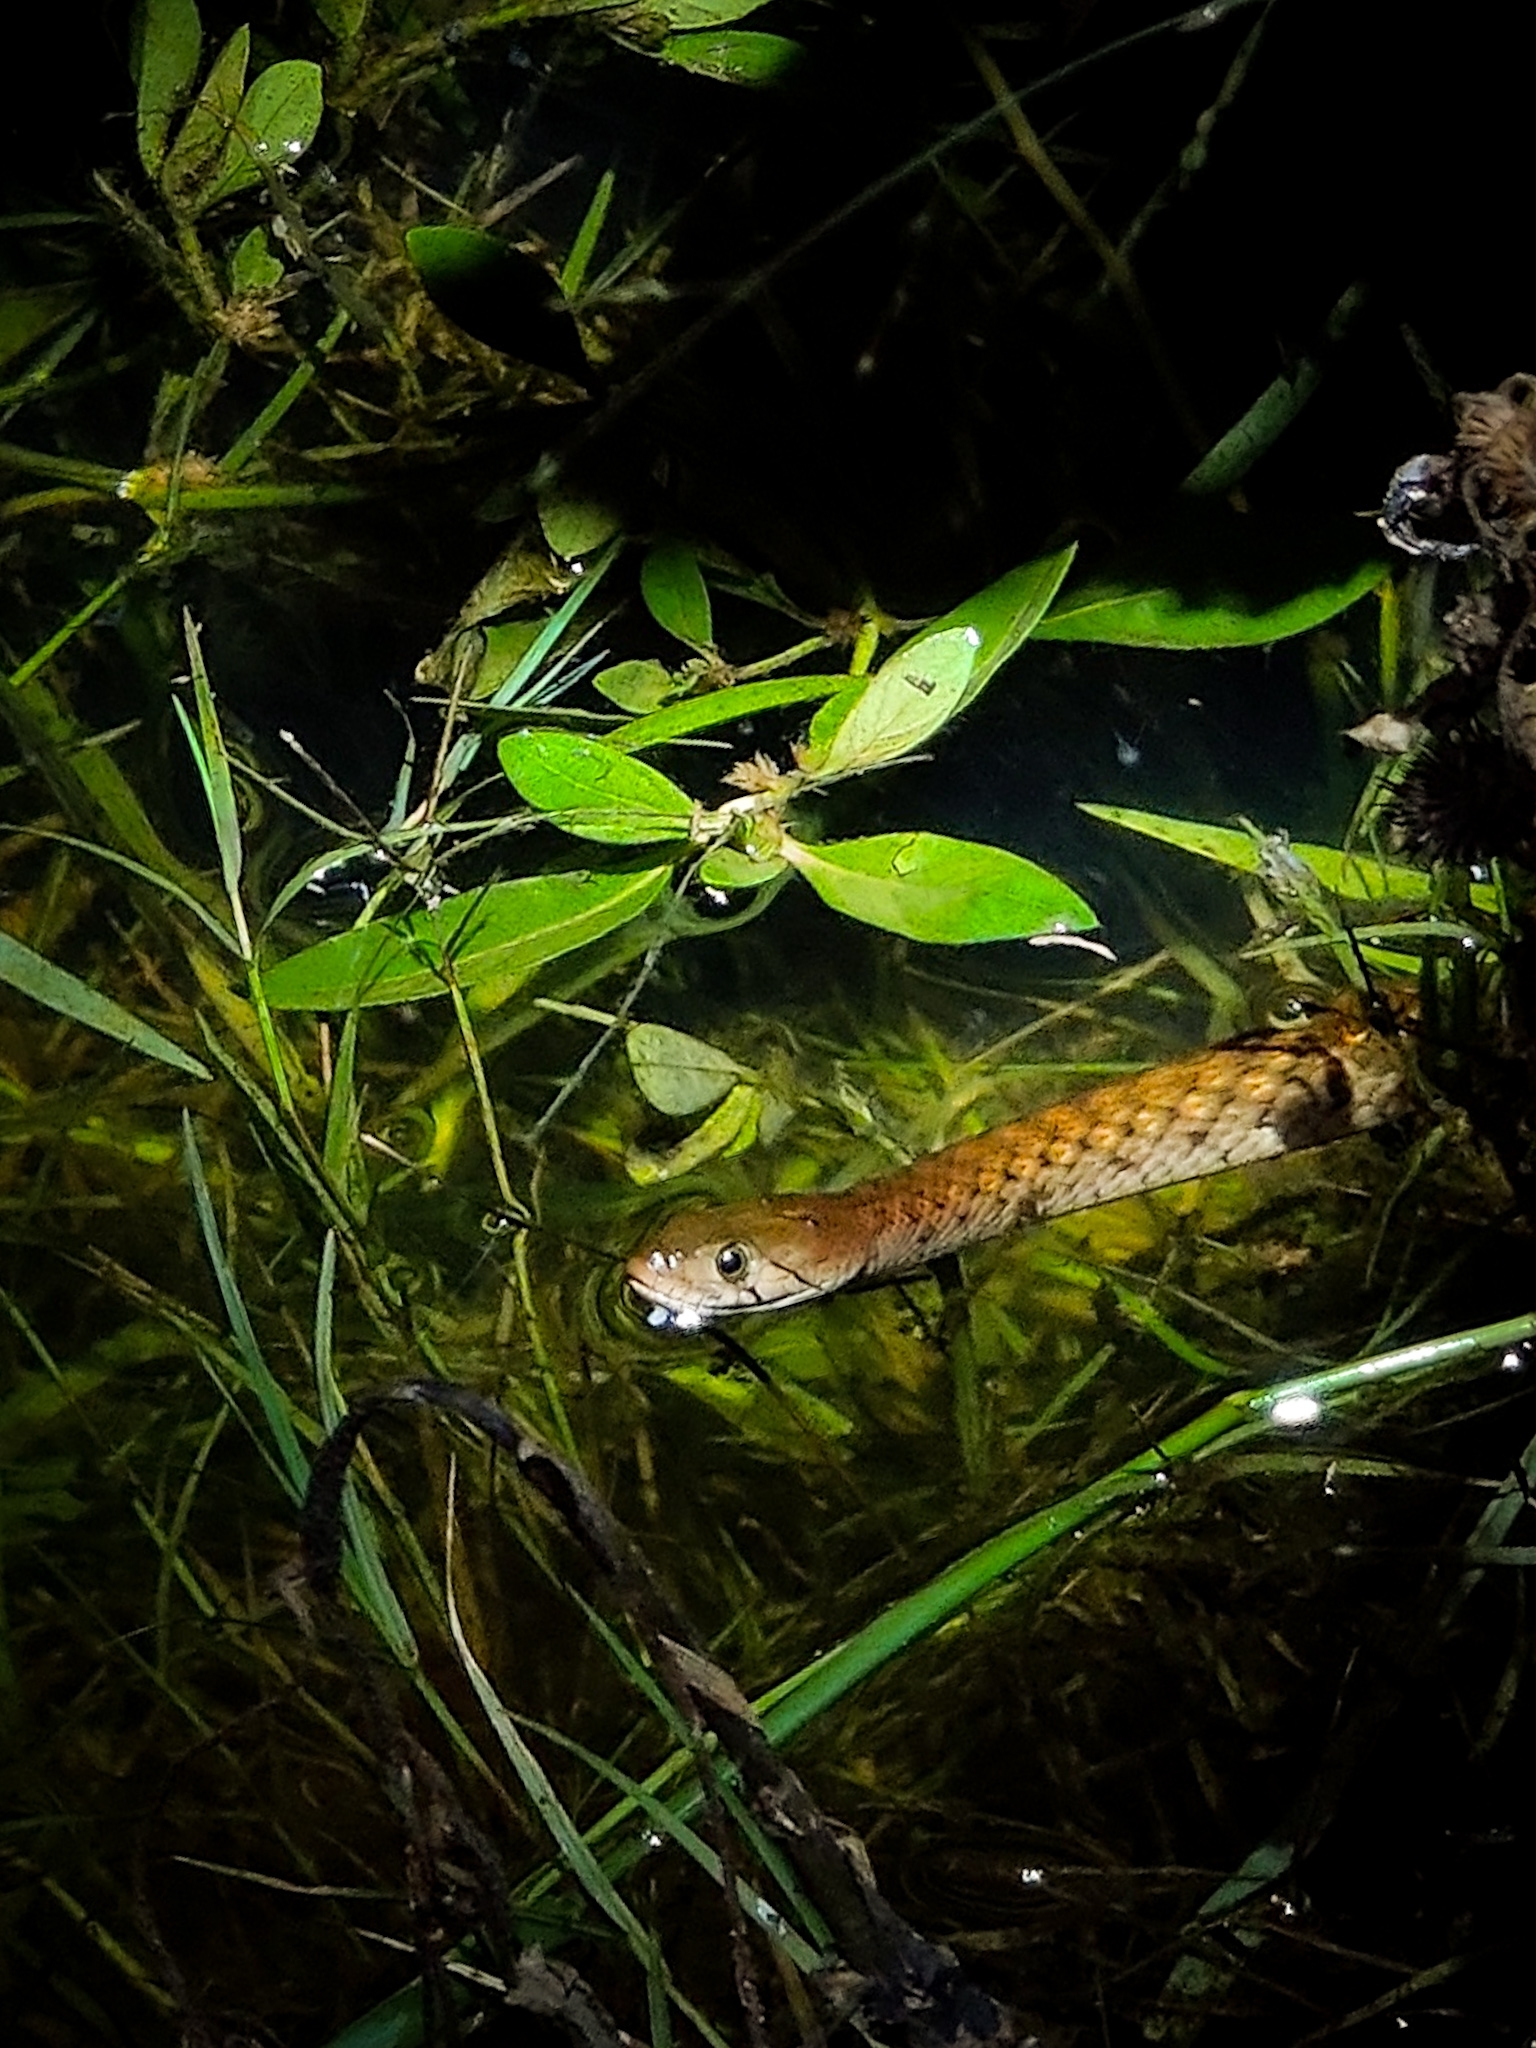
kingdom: Animalia
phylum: Chordata
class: Squamata
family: Colubridae
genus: Fowlea
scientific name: Fowlea piscator
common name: Asiatic water snake
